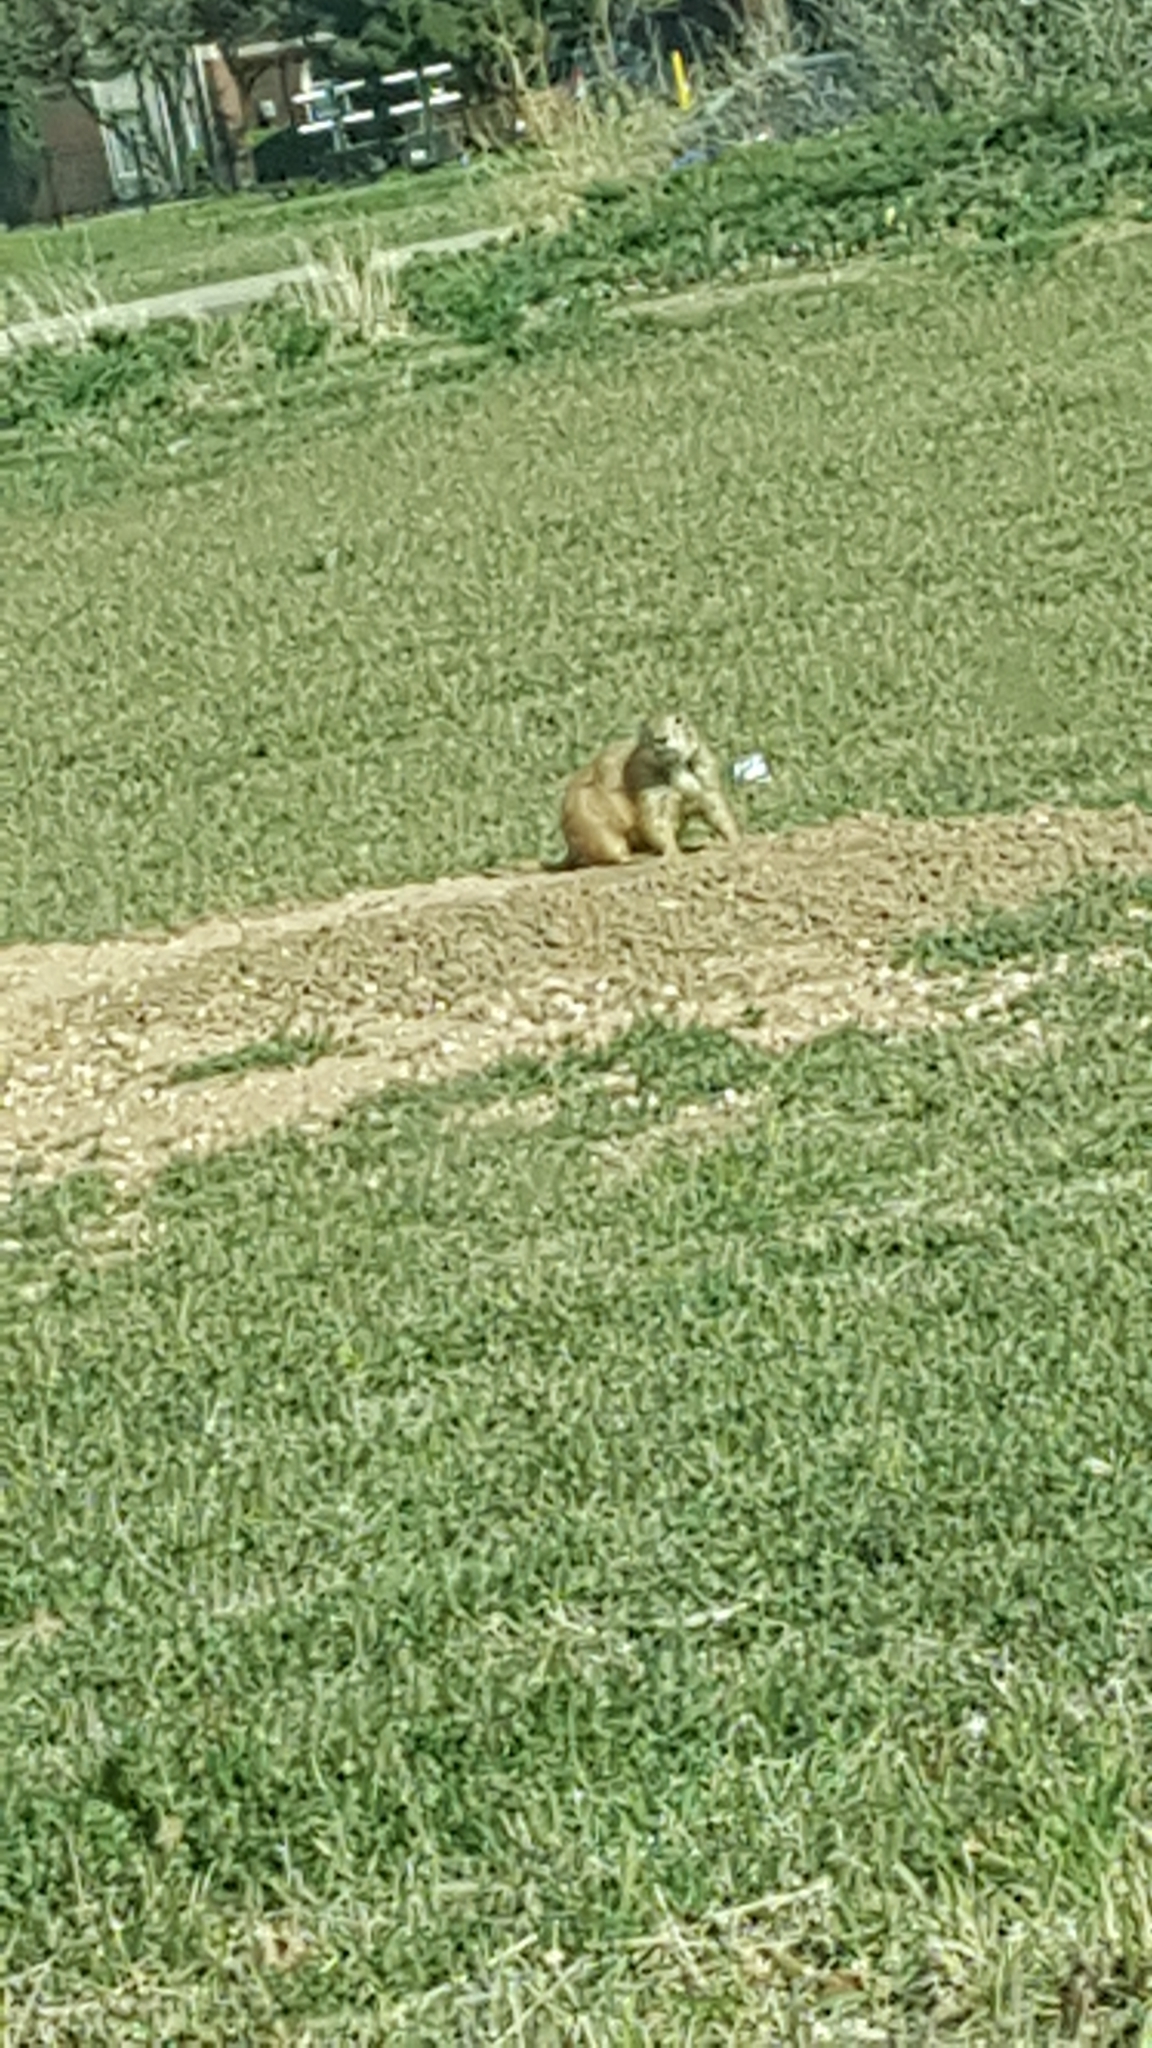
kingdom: Animalia
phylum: Chordata
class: Mammalia
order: Rodentia
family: Sciuridae
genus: Cynomys
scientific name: Cynomys ludovicianus
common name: Black-tailed prairie dog
